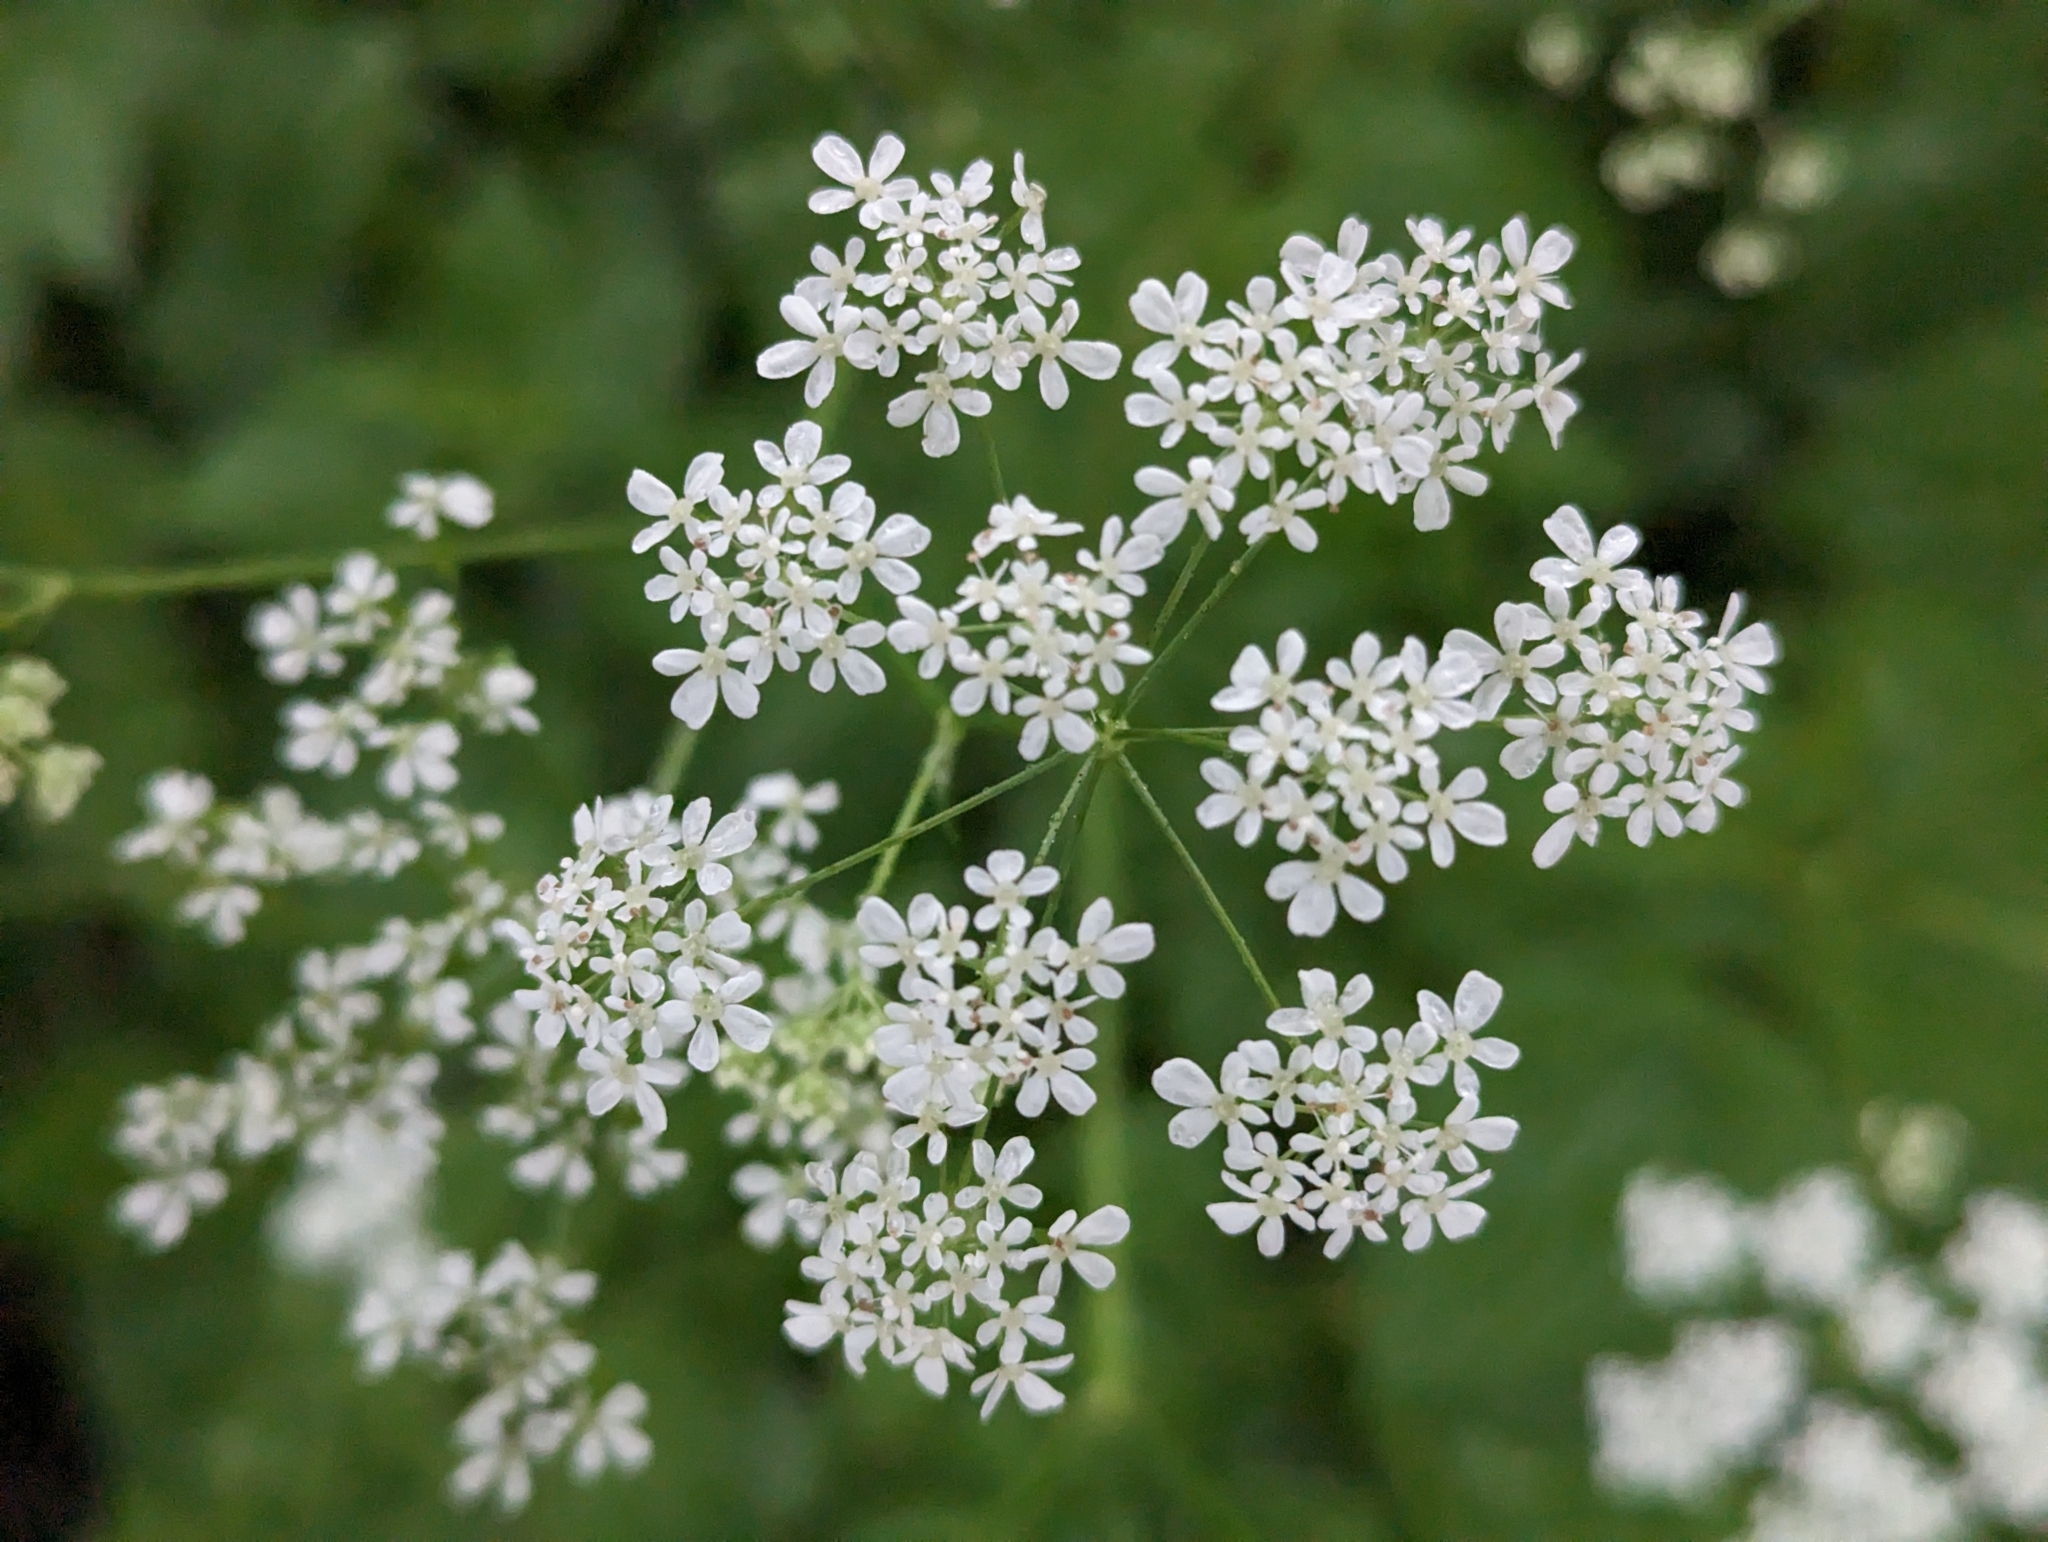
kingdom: Plantae
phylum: Tracheophyta
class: Magnoliopsida
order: Apiales
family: Apiaceae
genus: Anthriscus
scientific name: Anthriscus sylvestris
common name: Cow parsley
